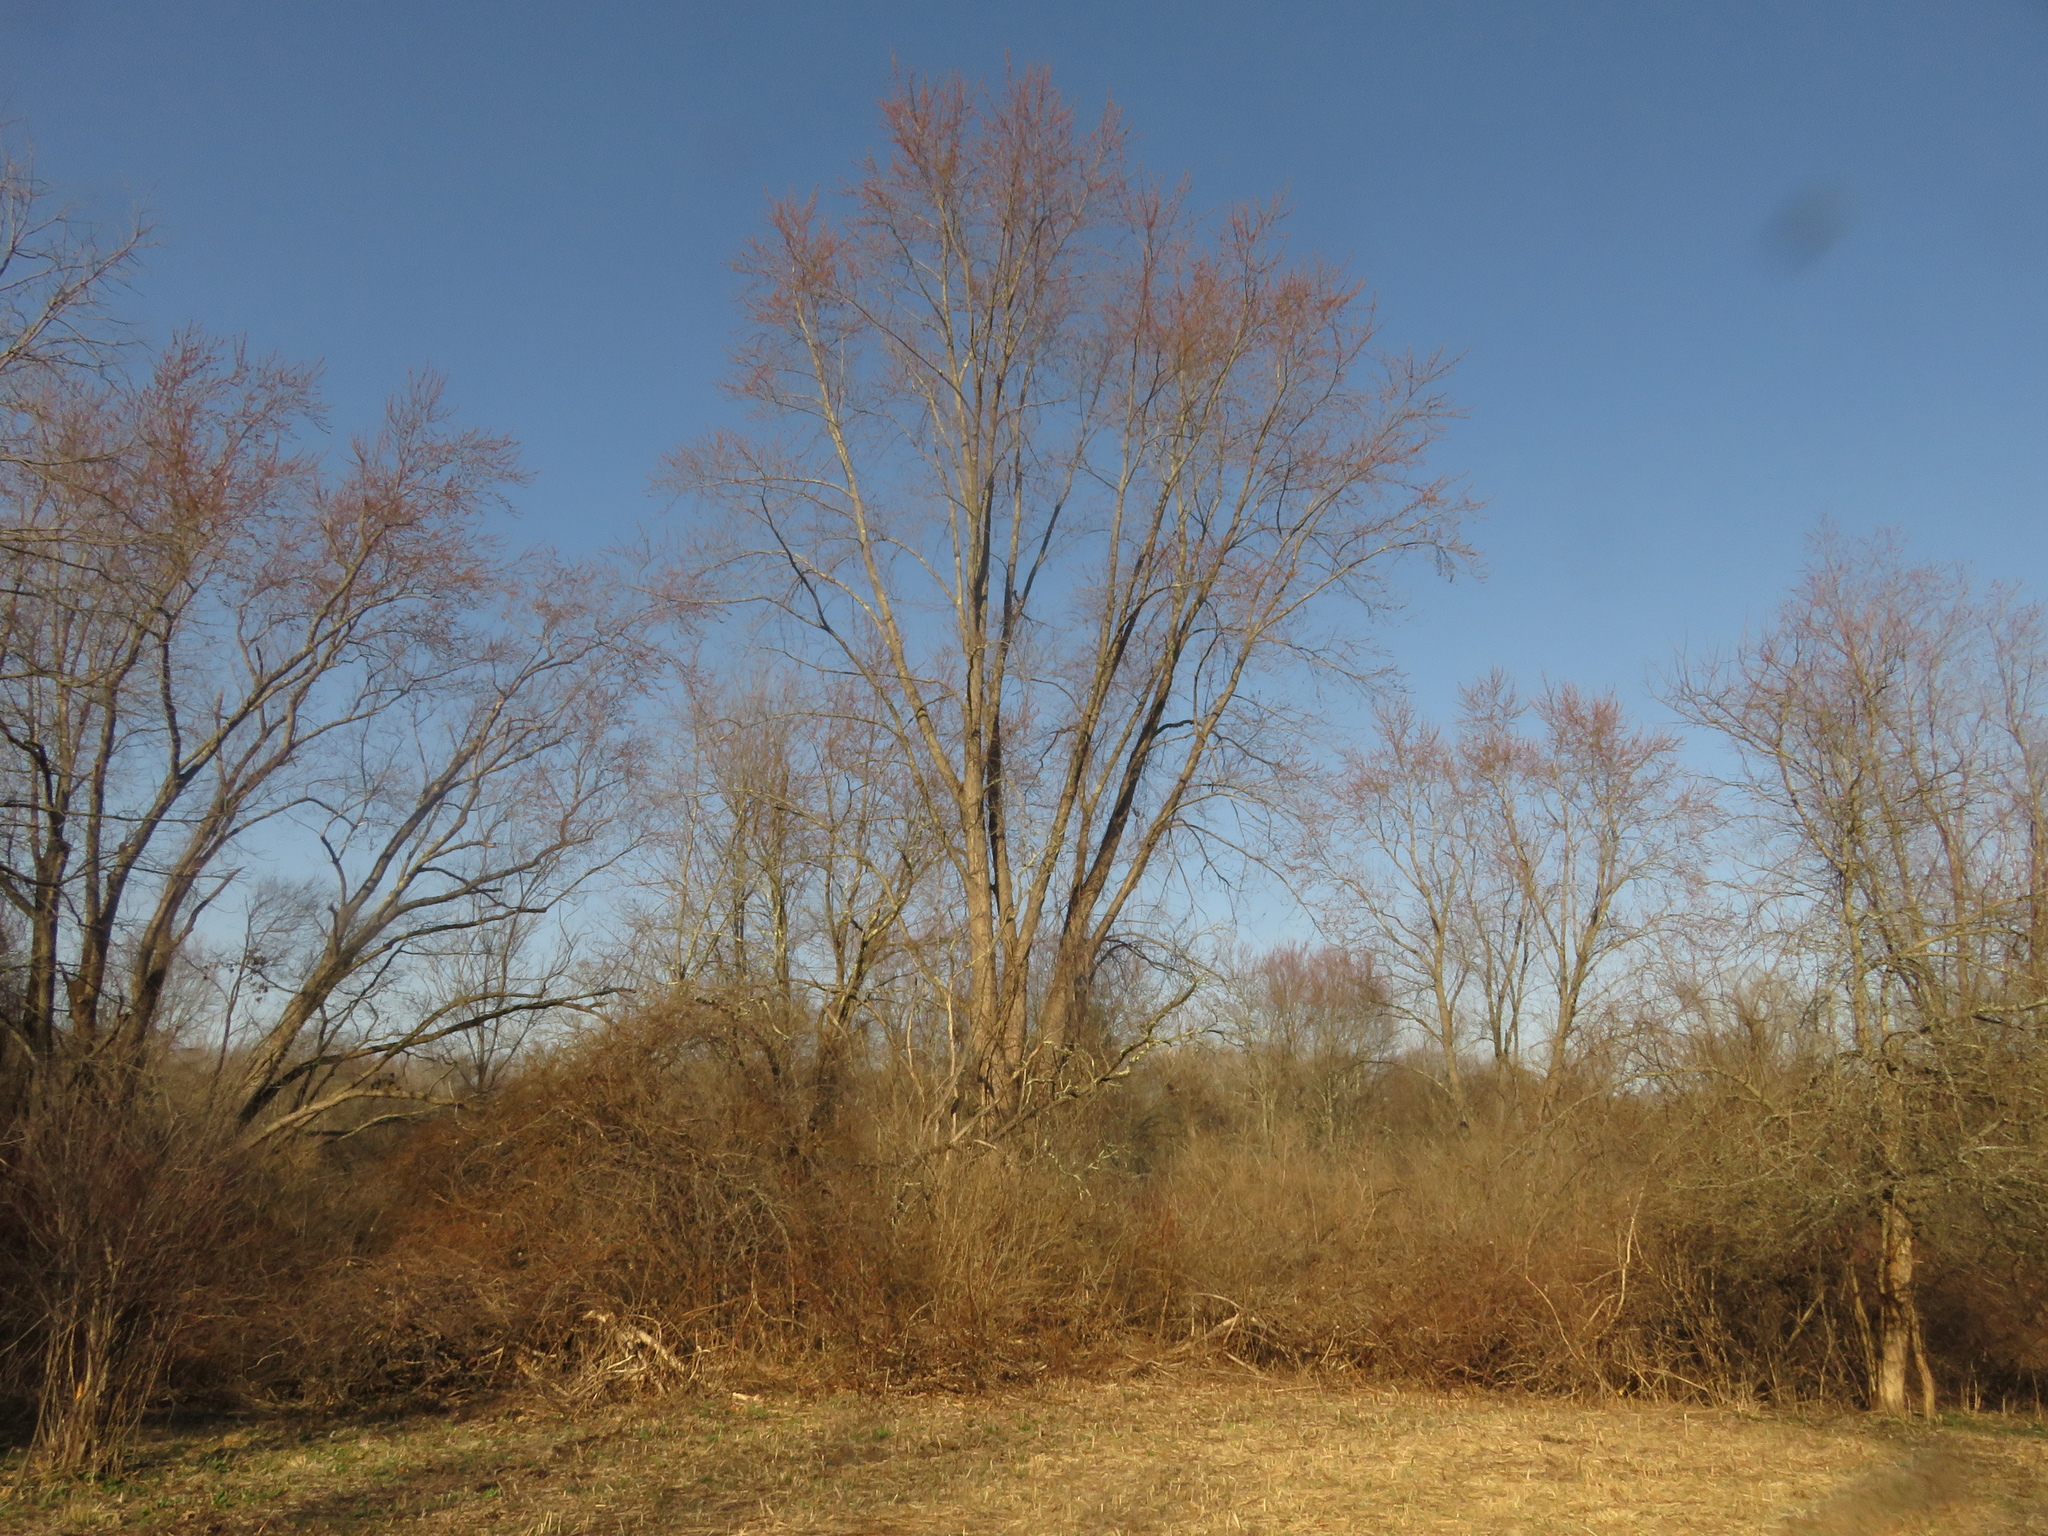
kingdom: Plantae
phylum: Tracheophyta
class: Magnoliopsida
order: Sapindales
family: Sapindaceae
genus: Acer
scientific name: Acer saccharinum
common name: Silver maple
